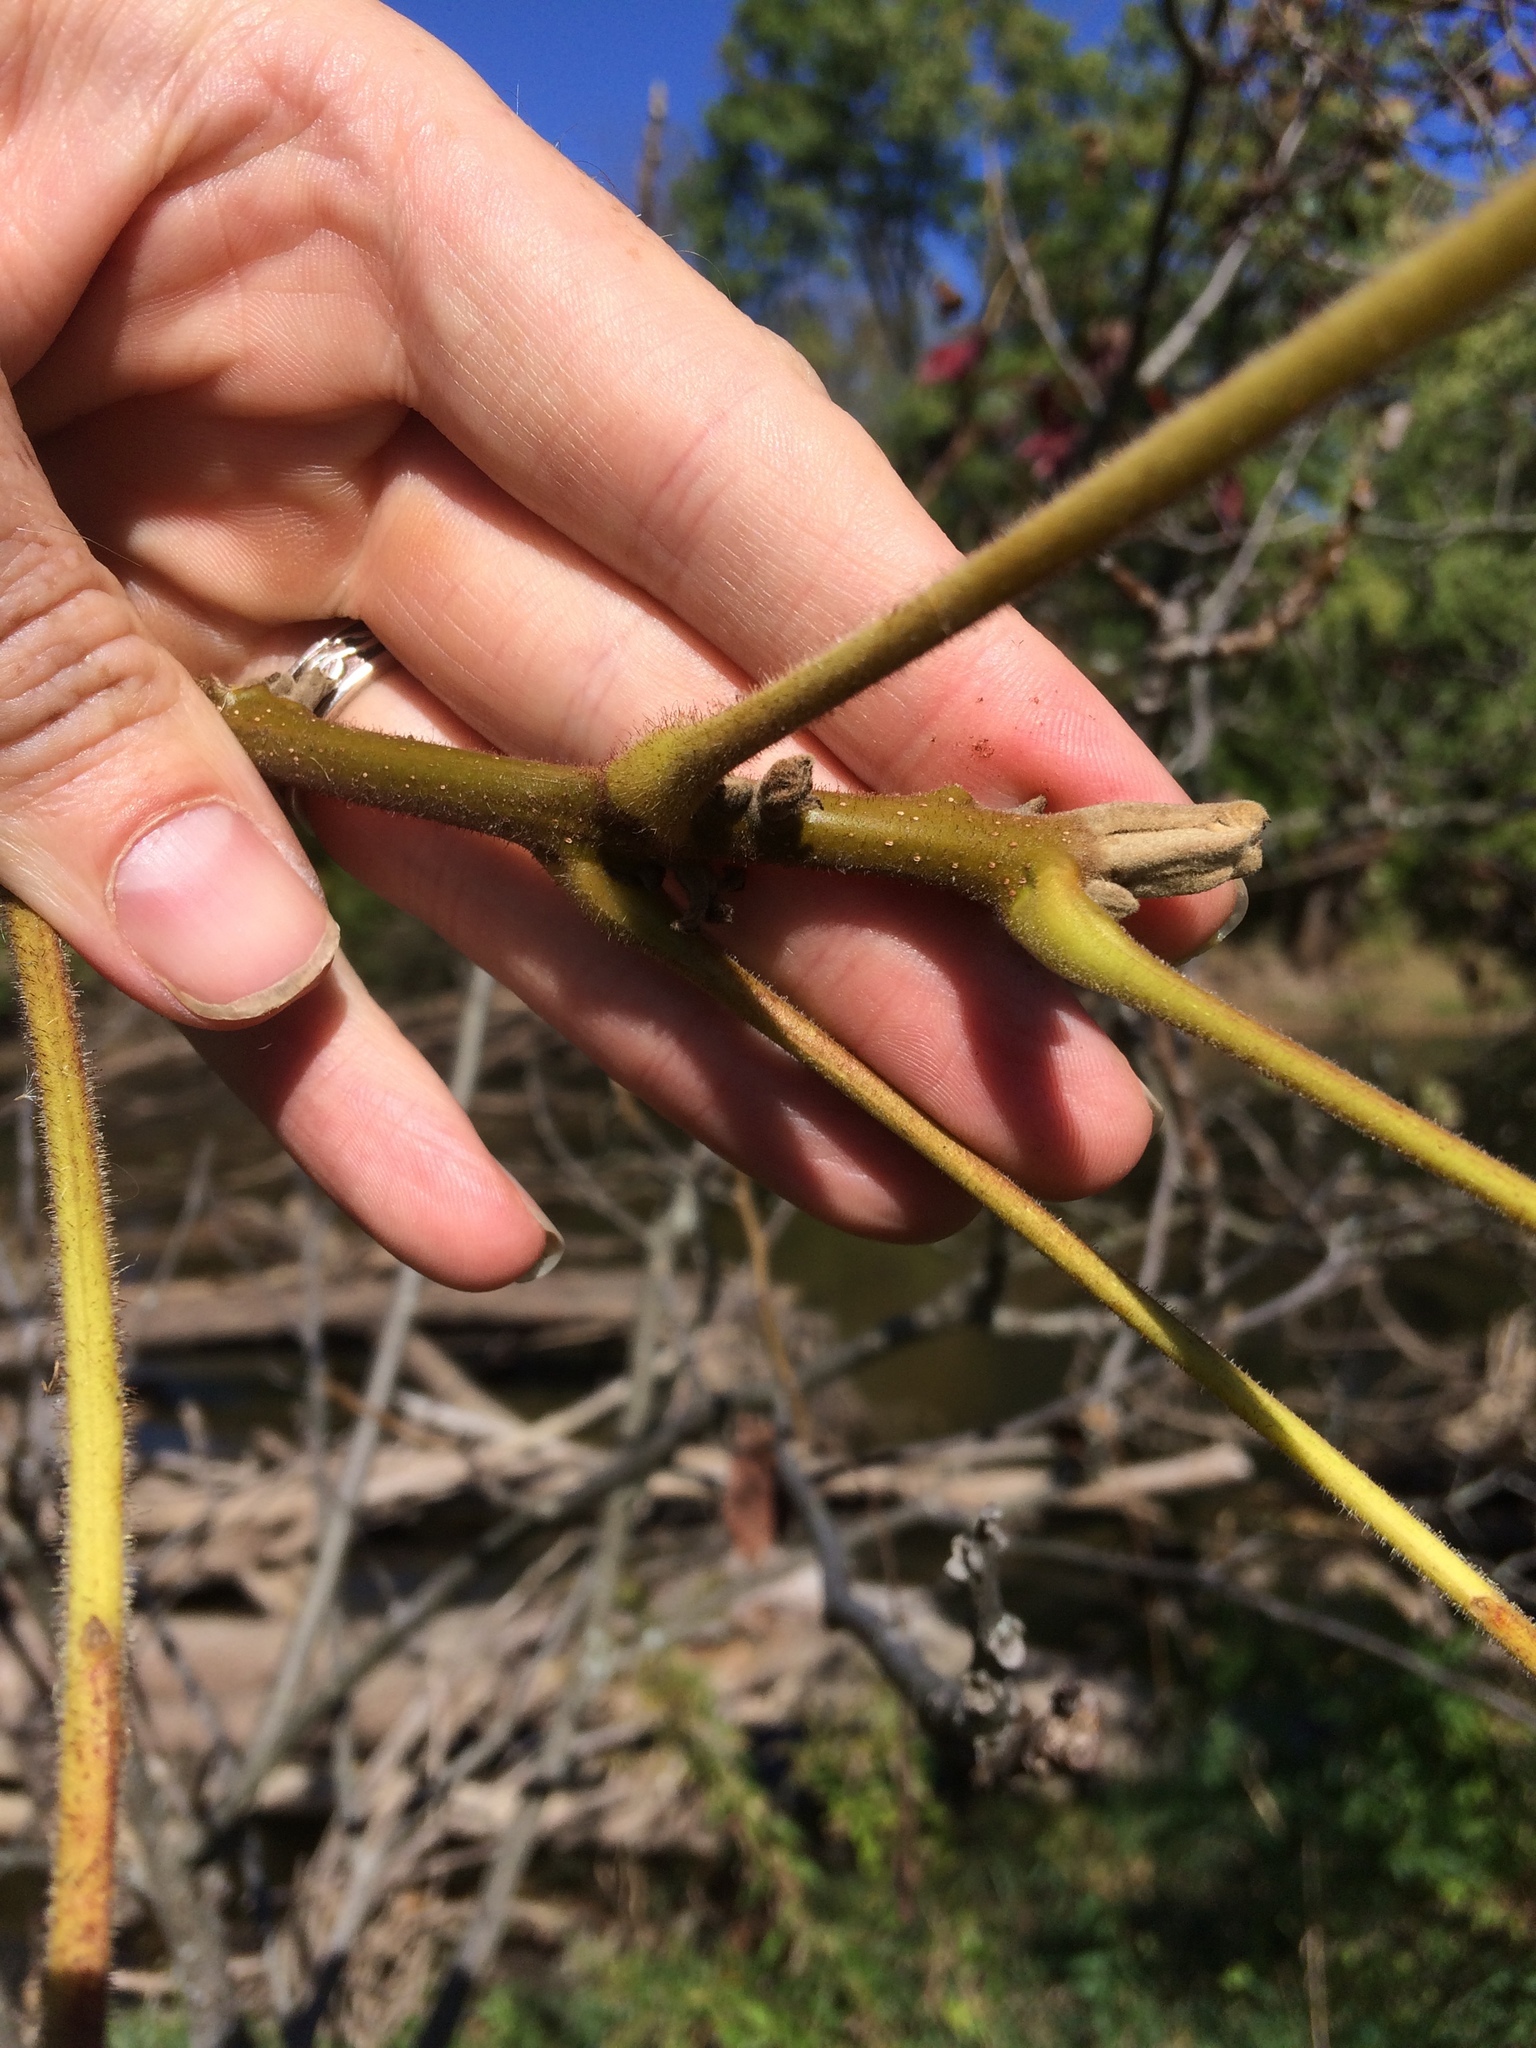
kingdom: Plantae
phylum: Tracheophyta
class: Magnoliopsida
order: Fagales
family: Juglandaceae
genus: Juglans
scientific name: Juglans cinerea
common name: Butternut
